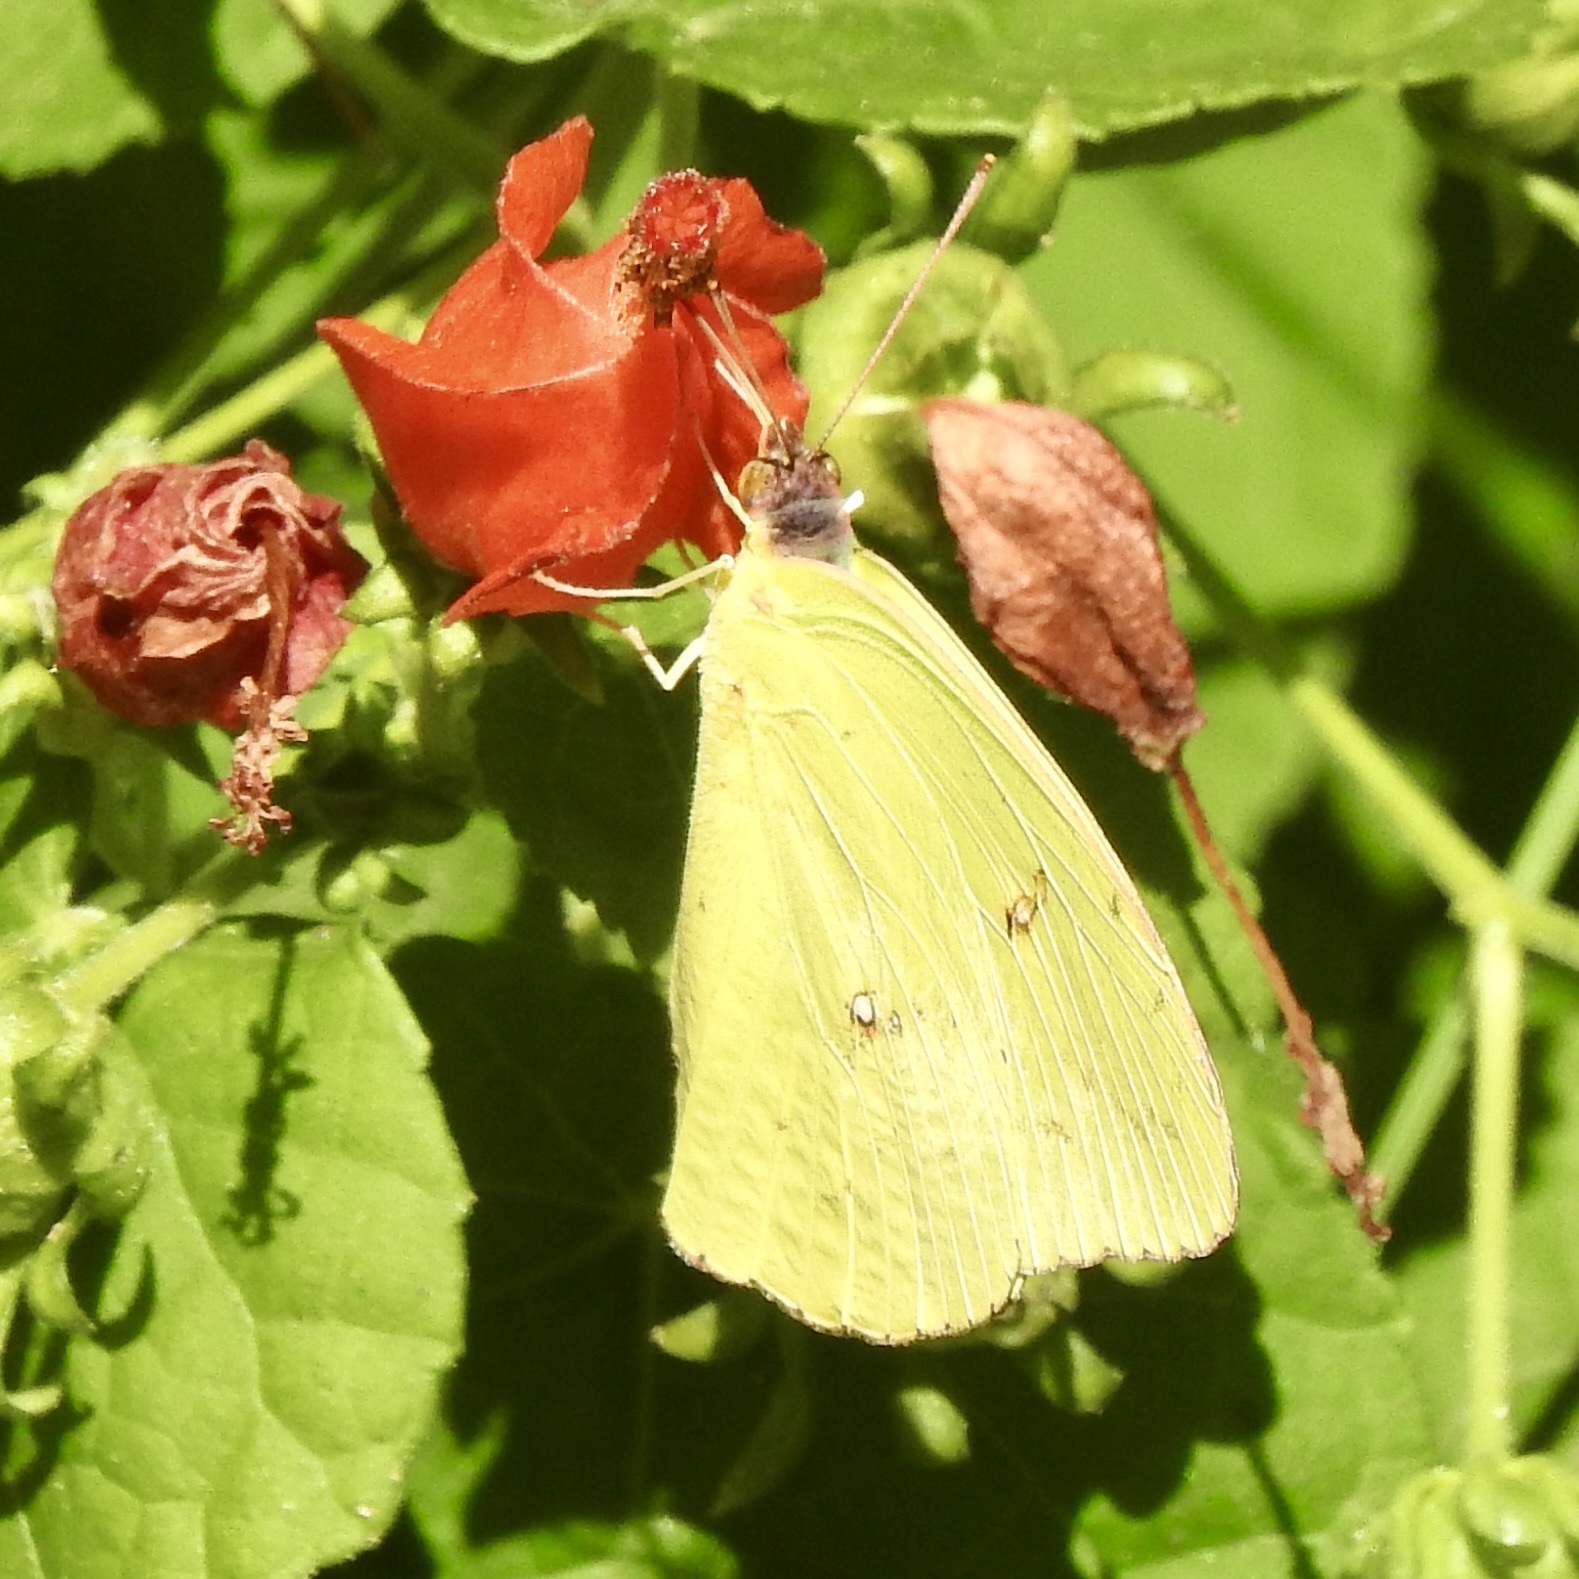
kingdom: Animalia
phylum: Arthropoda
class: Insecta
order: Lepidoptera
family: Pieridae
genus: Phoebis
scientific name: Phoebis sennae
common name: Cloudless sulphur
